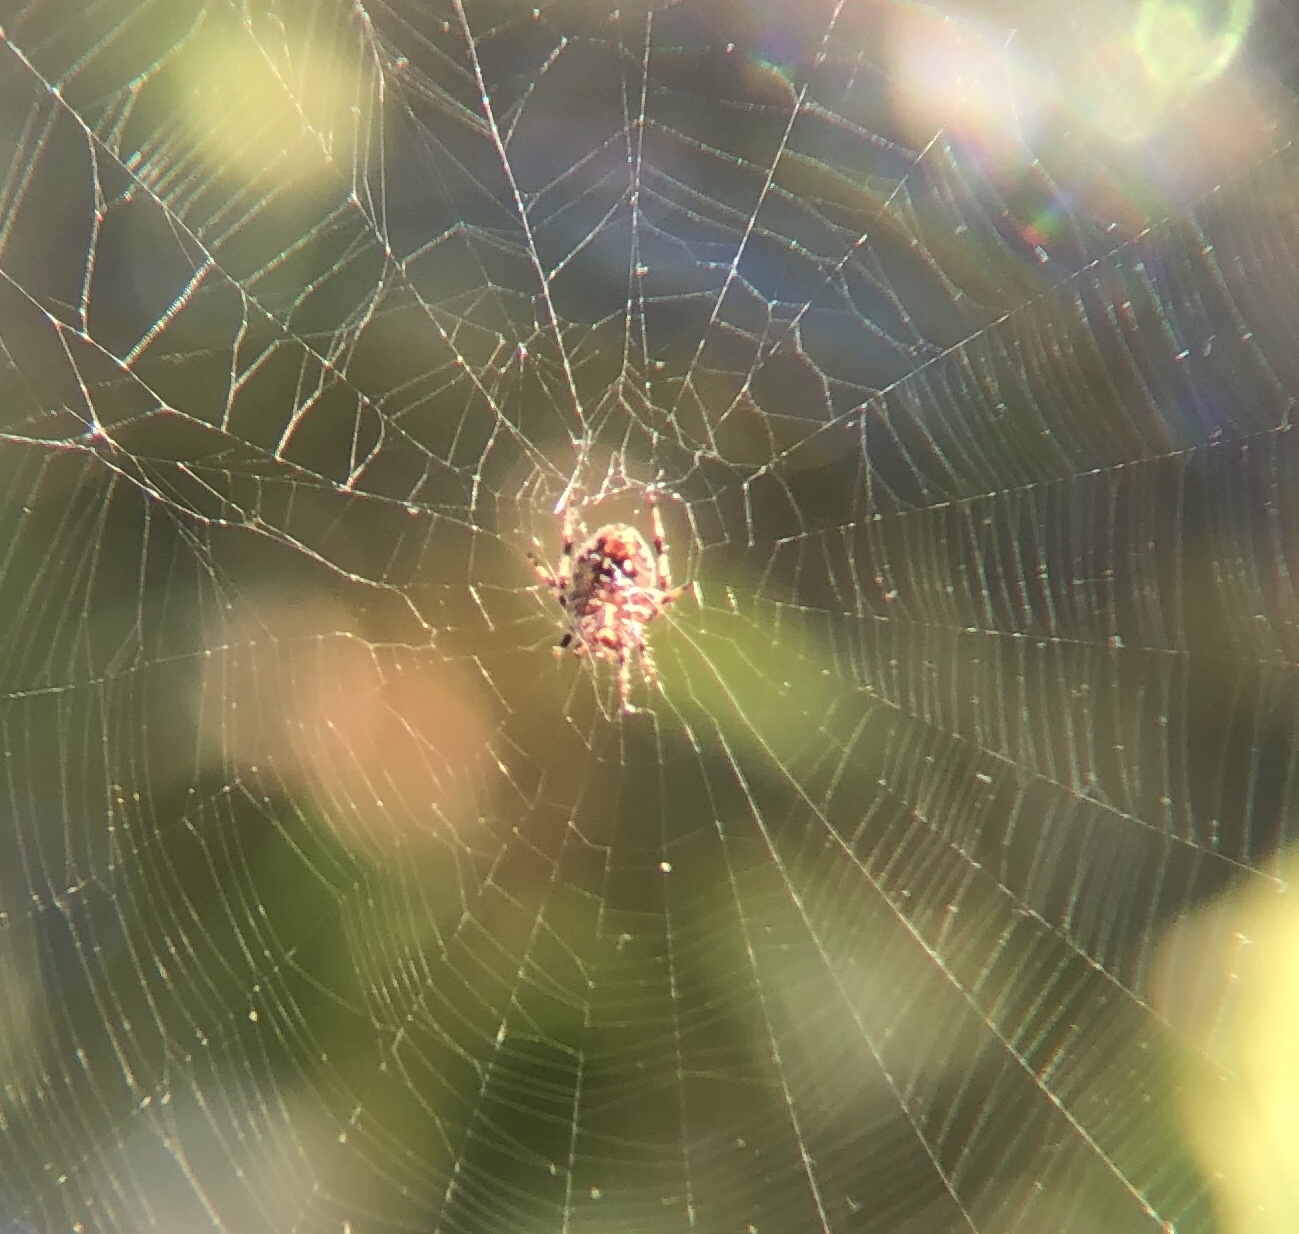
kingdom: Animalia
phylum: Arthropoda
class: Arachnida
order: Araneae
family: Araneidae
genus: Neoscona
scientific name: Neoscona crucifera
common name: Spotted orbweaver
